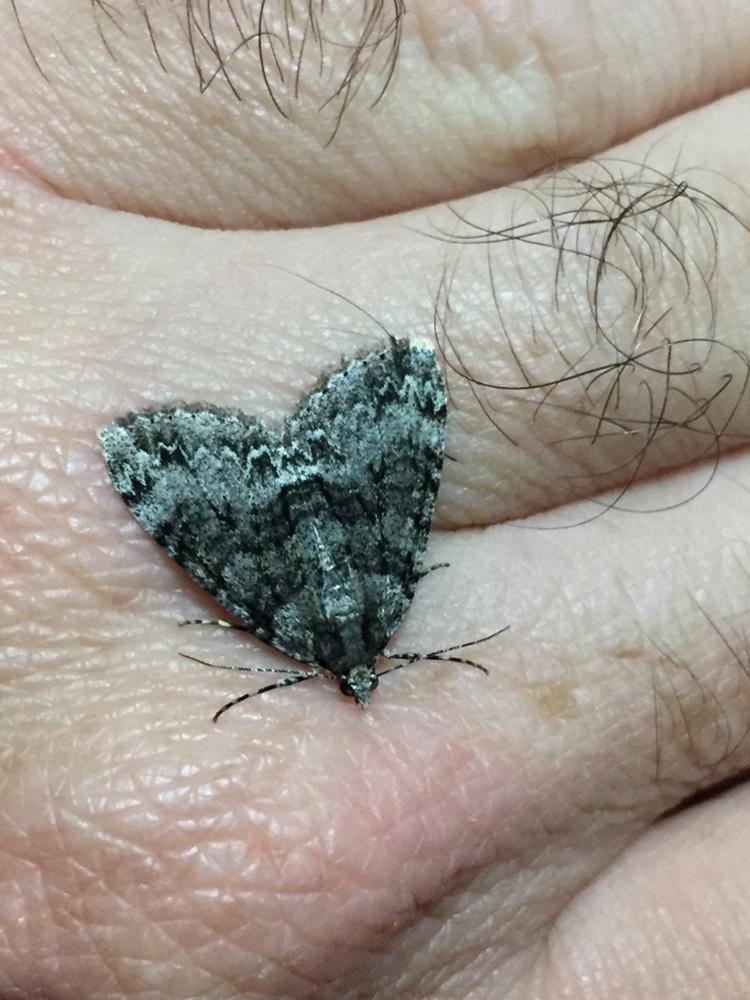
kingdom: Animalia
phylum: Arthropoda
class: Insecta
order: Lepidoptera
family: Geometridae
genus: Pseudocoremia
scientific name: Pseudocoremia suavis
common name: Common forest looper
